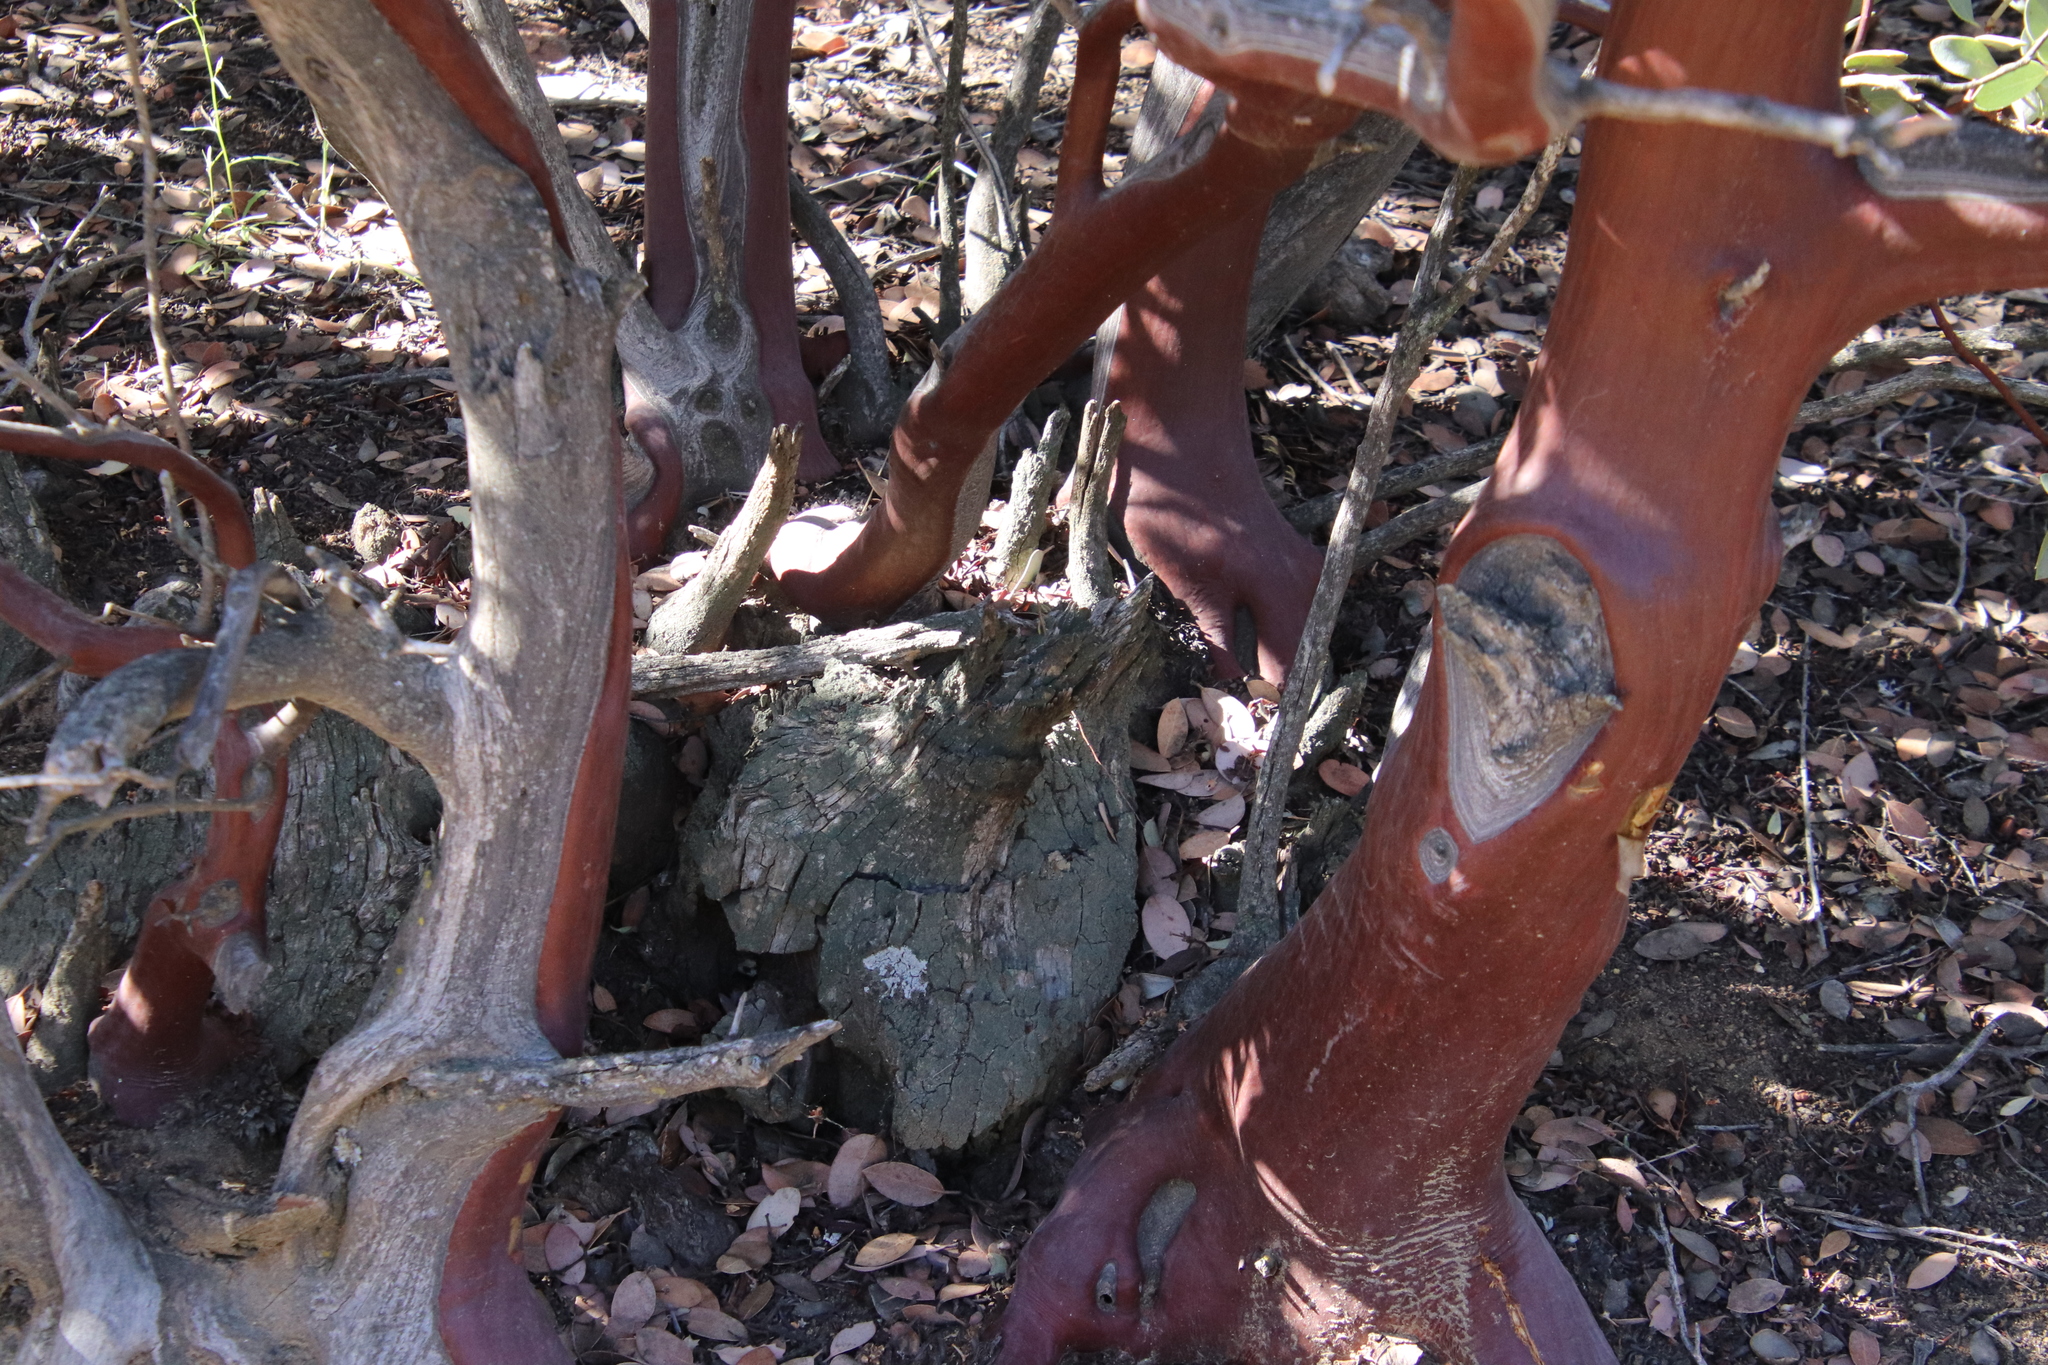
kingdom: Plantae
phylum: Tracheophyta
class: Magnoliopsida
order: Ericales
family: Ericaceae
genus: Arctostaphylos
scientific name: Arctostaphylos glandulosa
